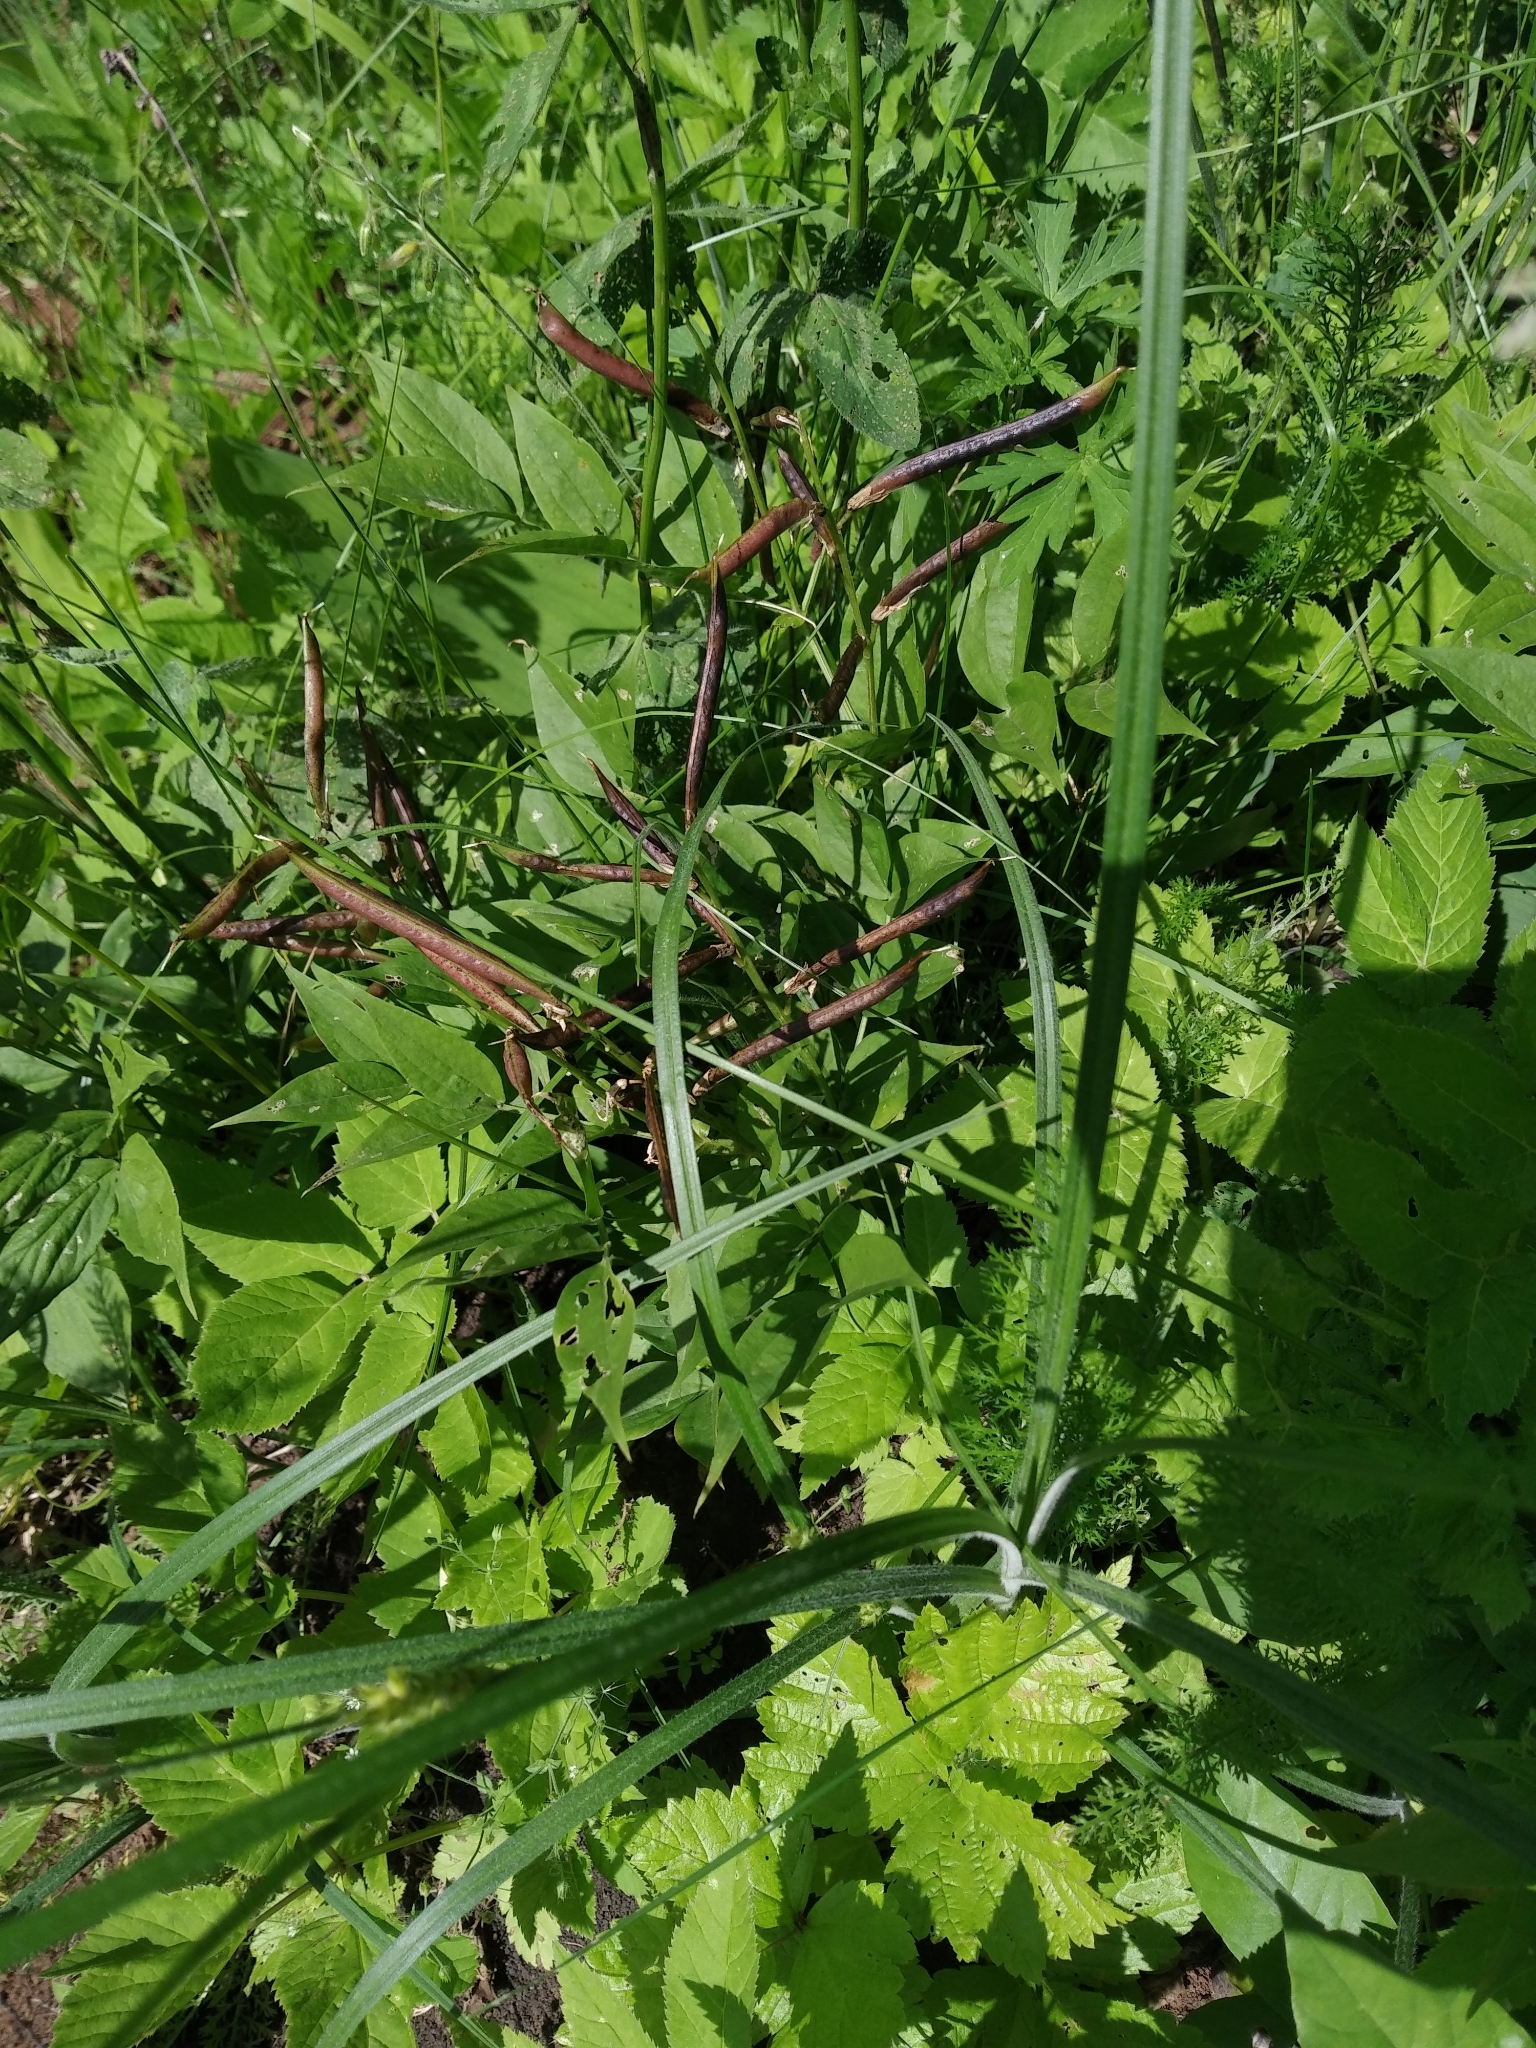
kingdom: Plantae
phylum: Tracheophyta
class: Magnoliopsida
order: Fabales
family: Fabaceae
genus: Lathyrus
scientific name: Lathyrus vernus
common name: Spring pea
